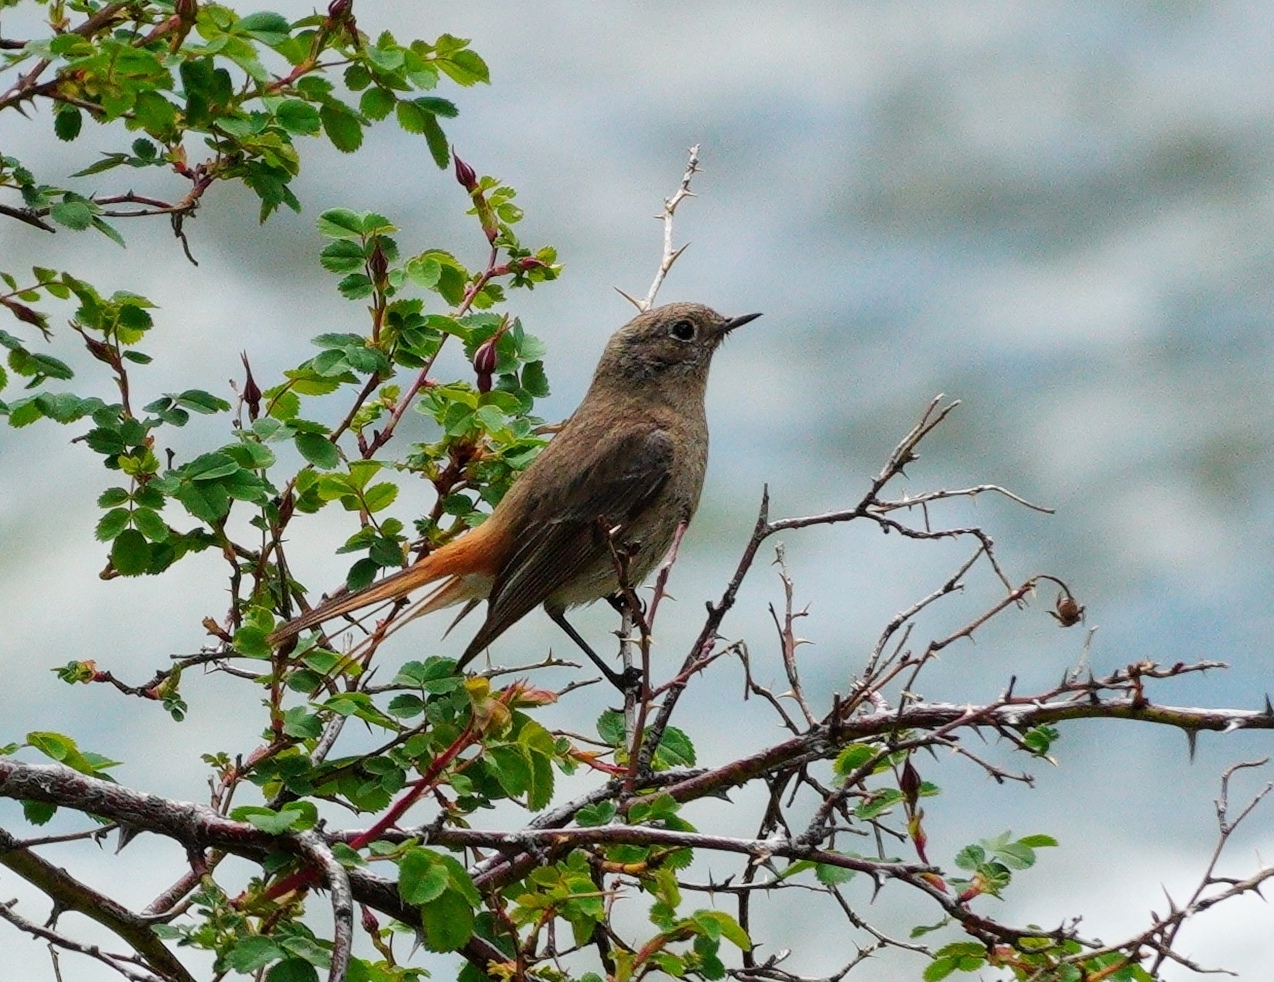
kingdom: Animalia
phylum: Chordata
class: Aves
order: Passeriformes
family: Muscicapidae
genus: Phoenicurus
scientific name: Phoenicurus ochruros
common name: Black redstart
